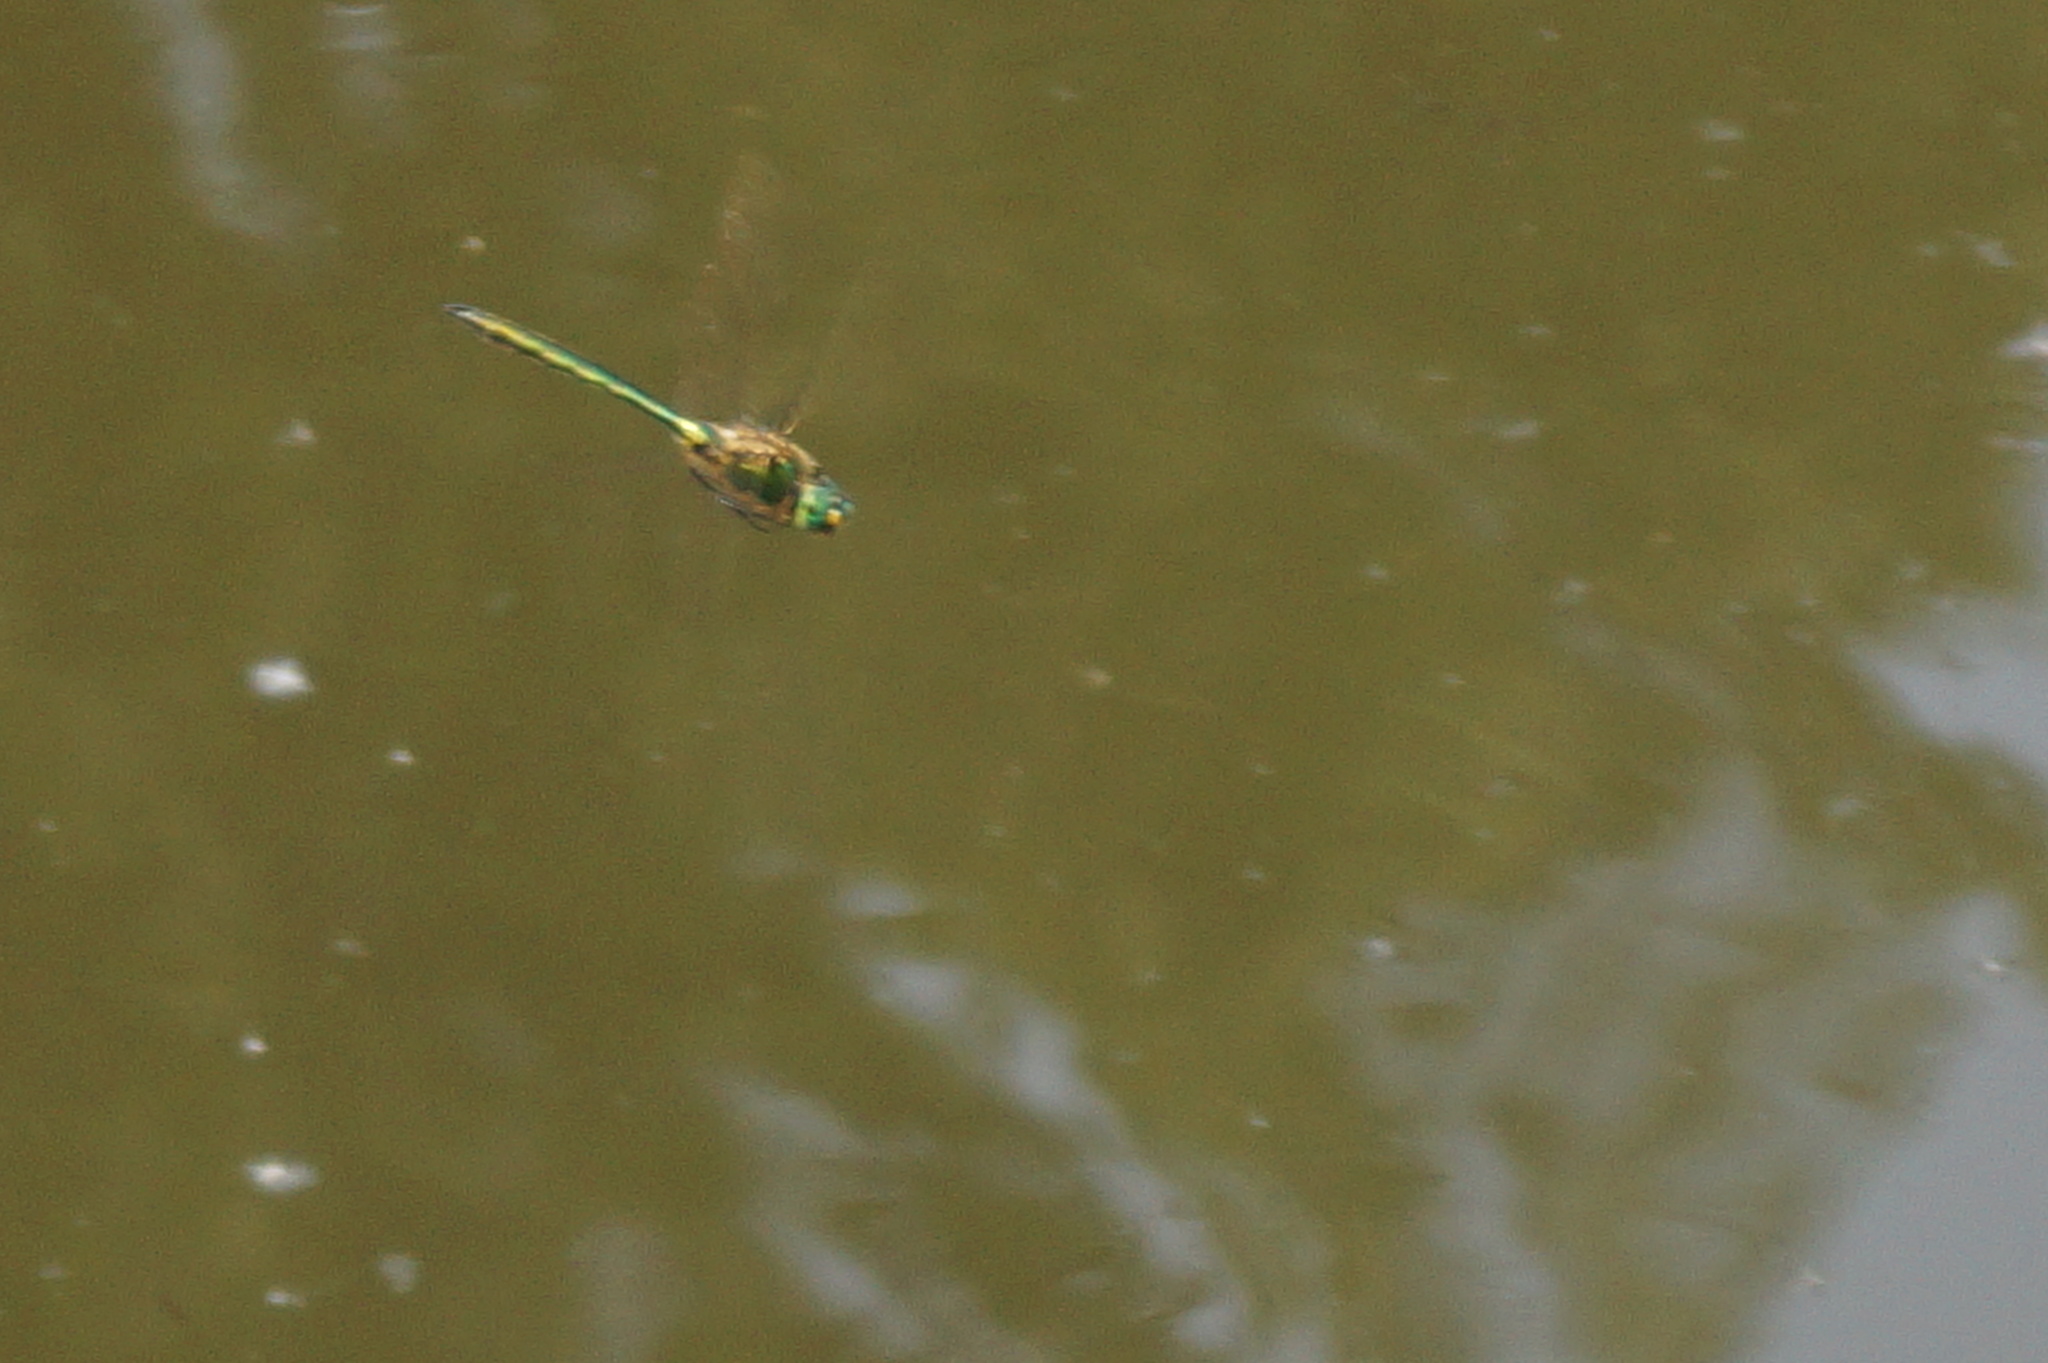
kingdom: Animalia
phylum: Arthropoda
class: Insecta
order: Odonata
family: Corduliidae
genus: Somatochlora
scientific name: Somatochlora metallica
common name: Brilliant emerald
